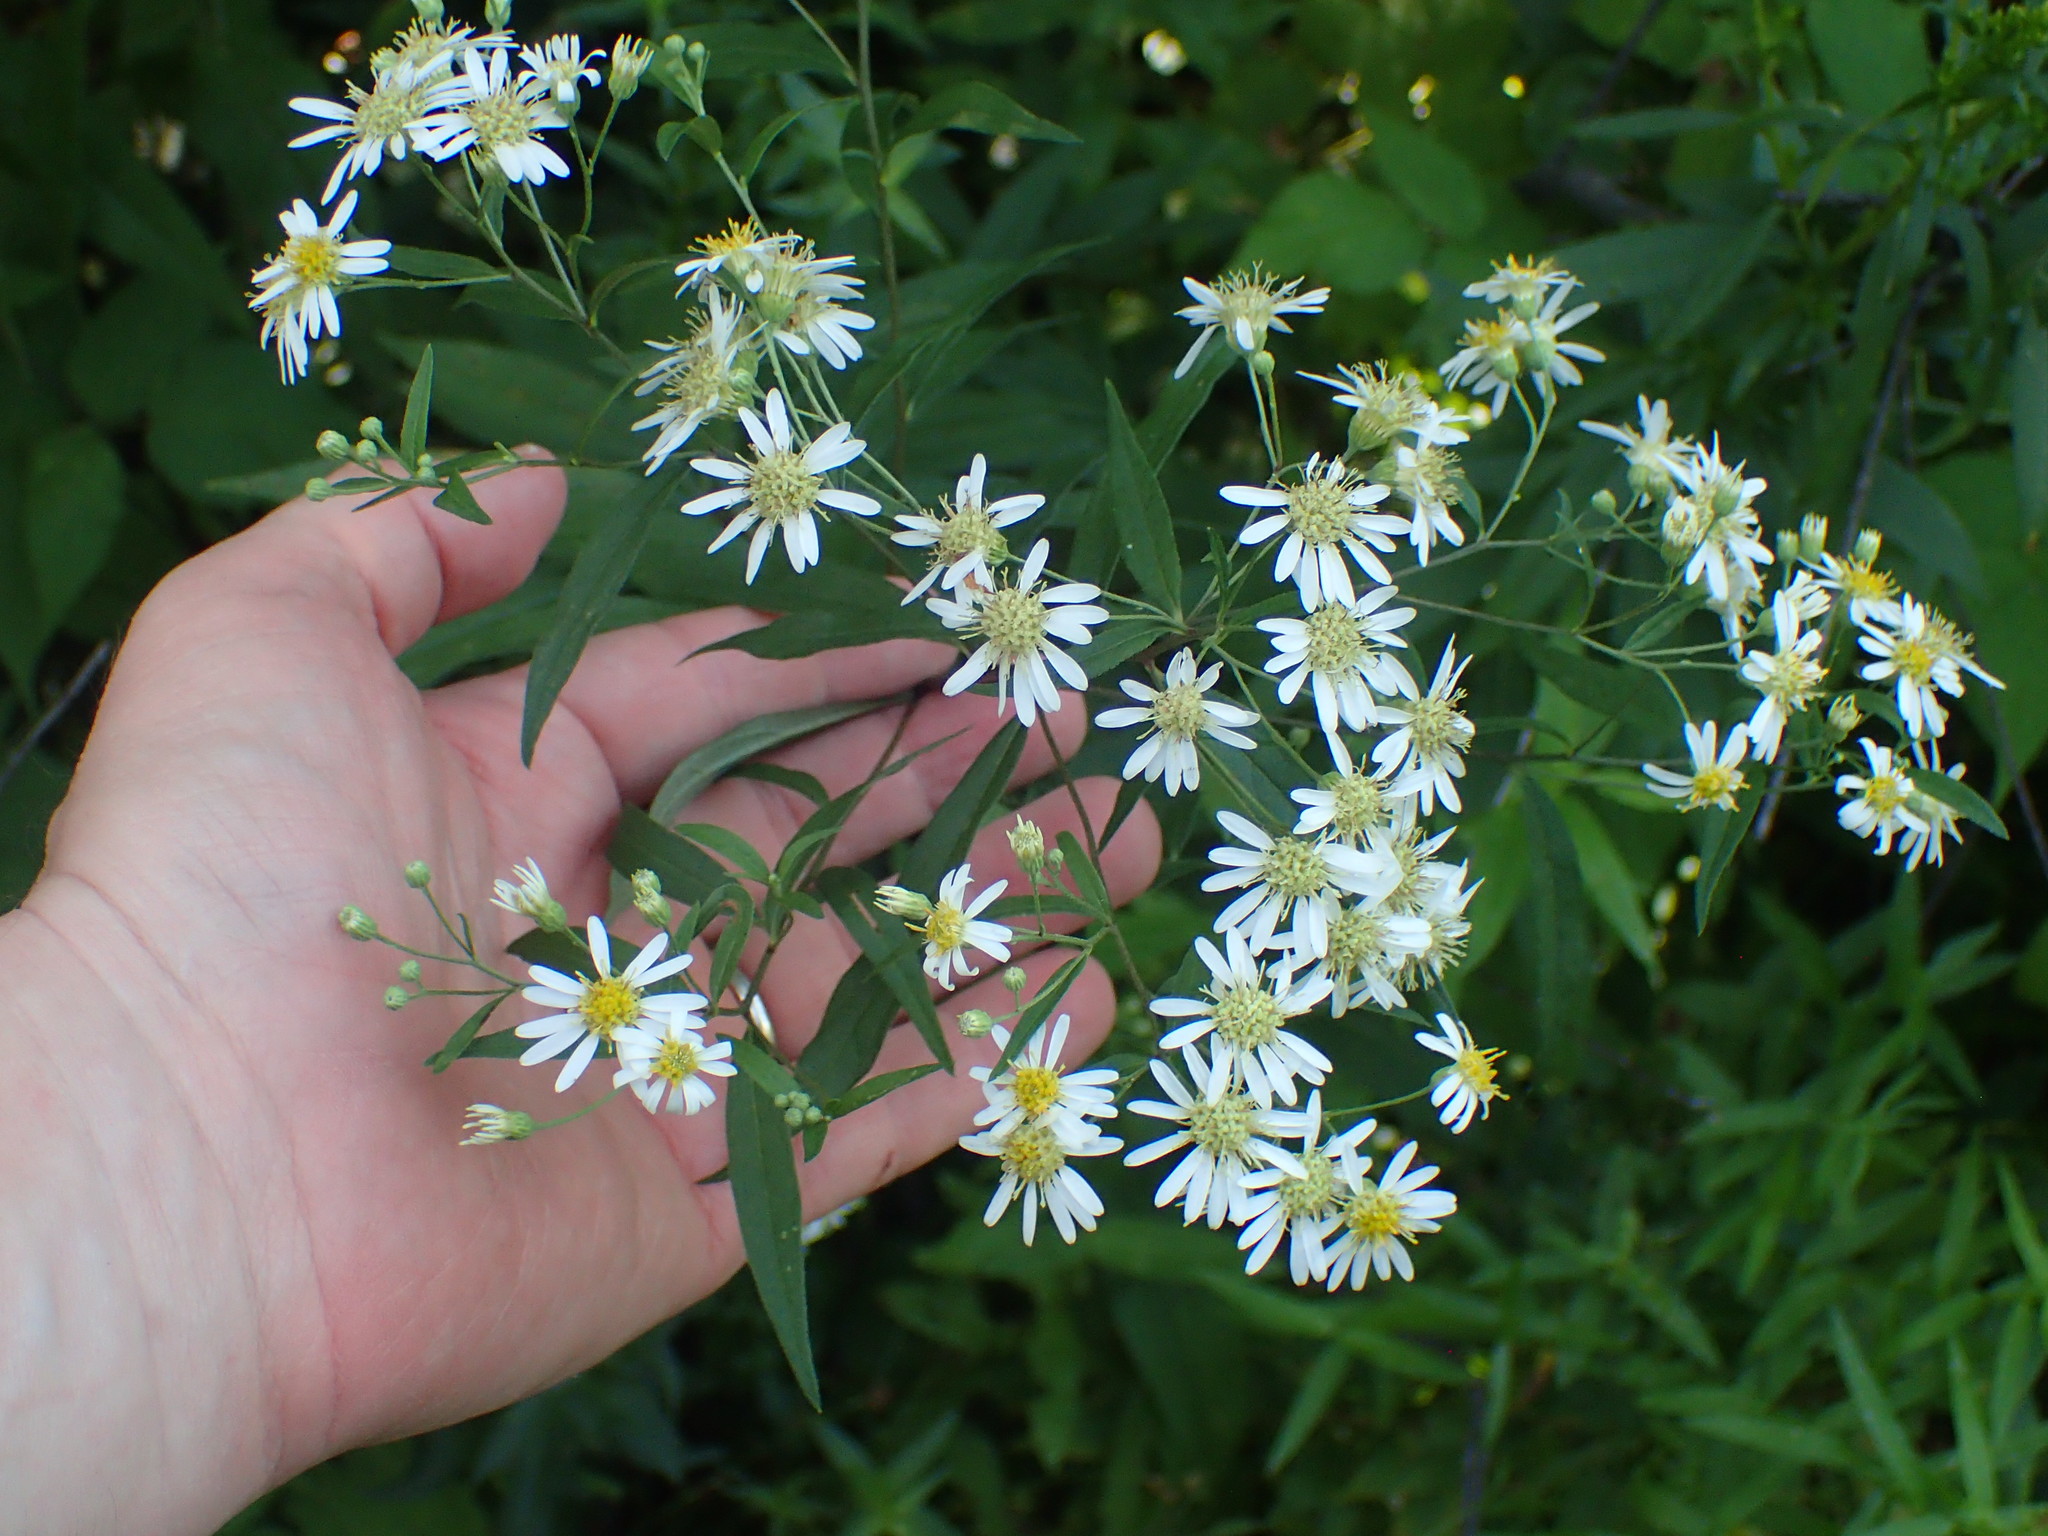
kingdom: Plantae
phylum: Tracheophyta
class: Magnoliopsida
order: Asterales
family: Asteraceae
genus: Doellingeria
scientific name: Doellingeria umbellata
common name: Flat-top white aster
